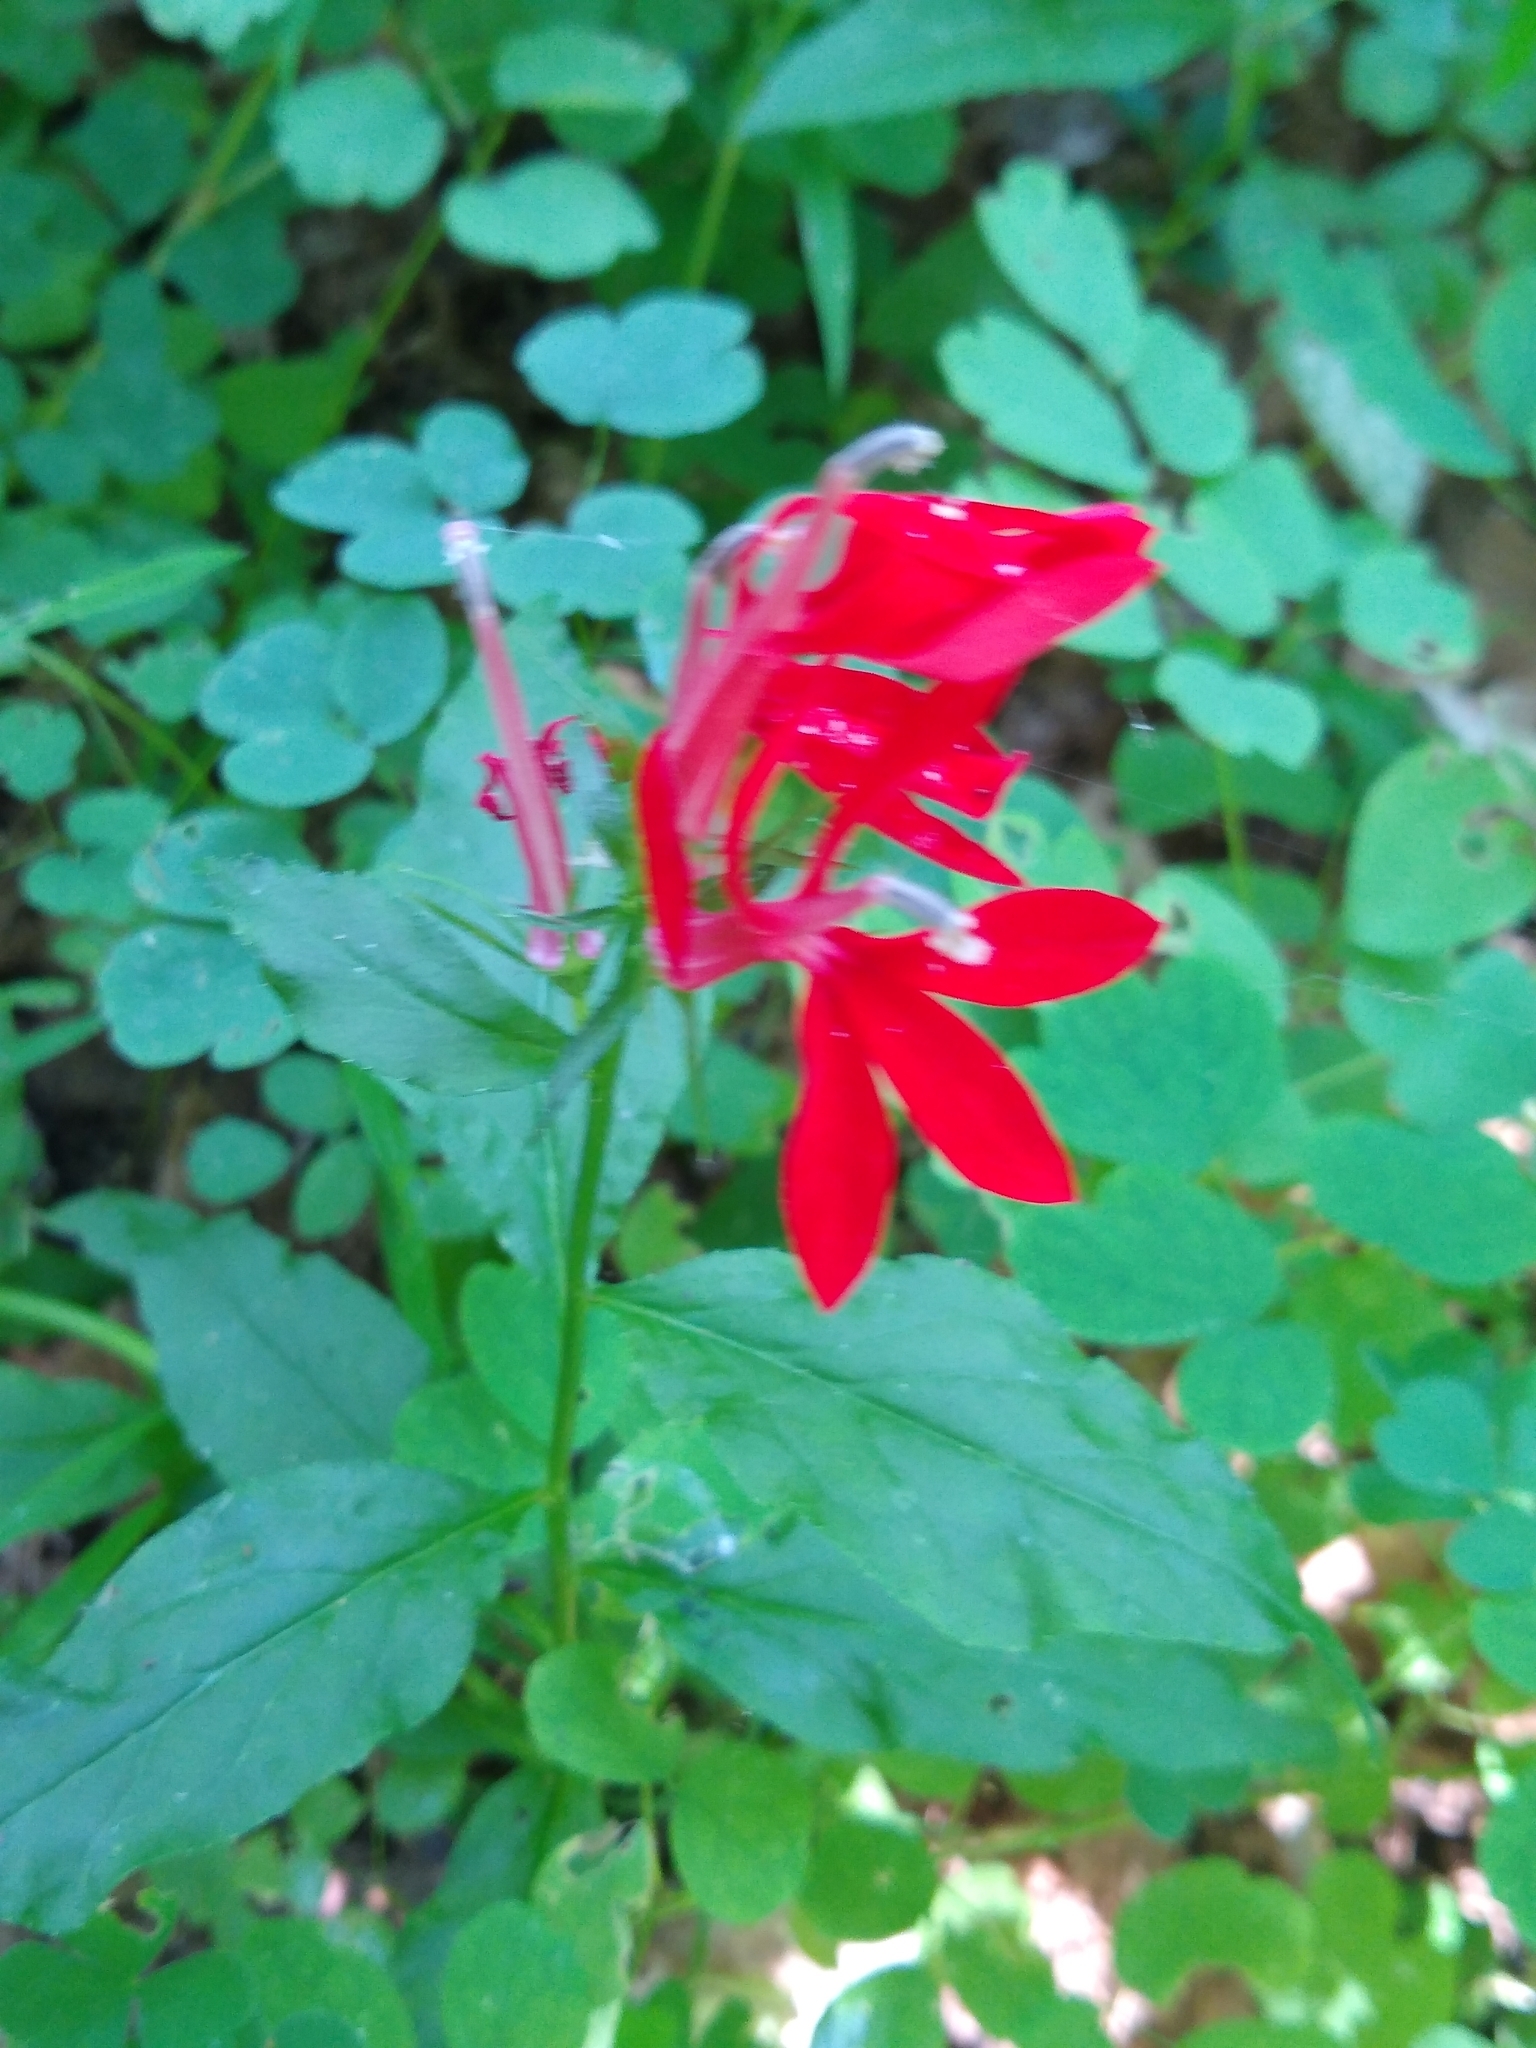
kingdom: Plantae
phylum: Tracheophyta
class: Magnoliopsida
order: Asterales
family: Campanulaceae
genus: Lobelia
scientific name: Lobelia cardinalis
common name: Cardinal flower
